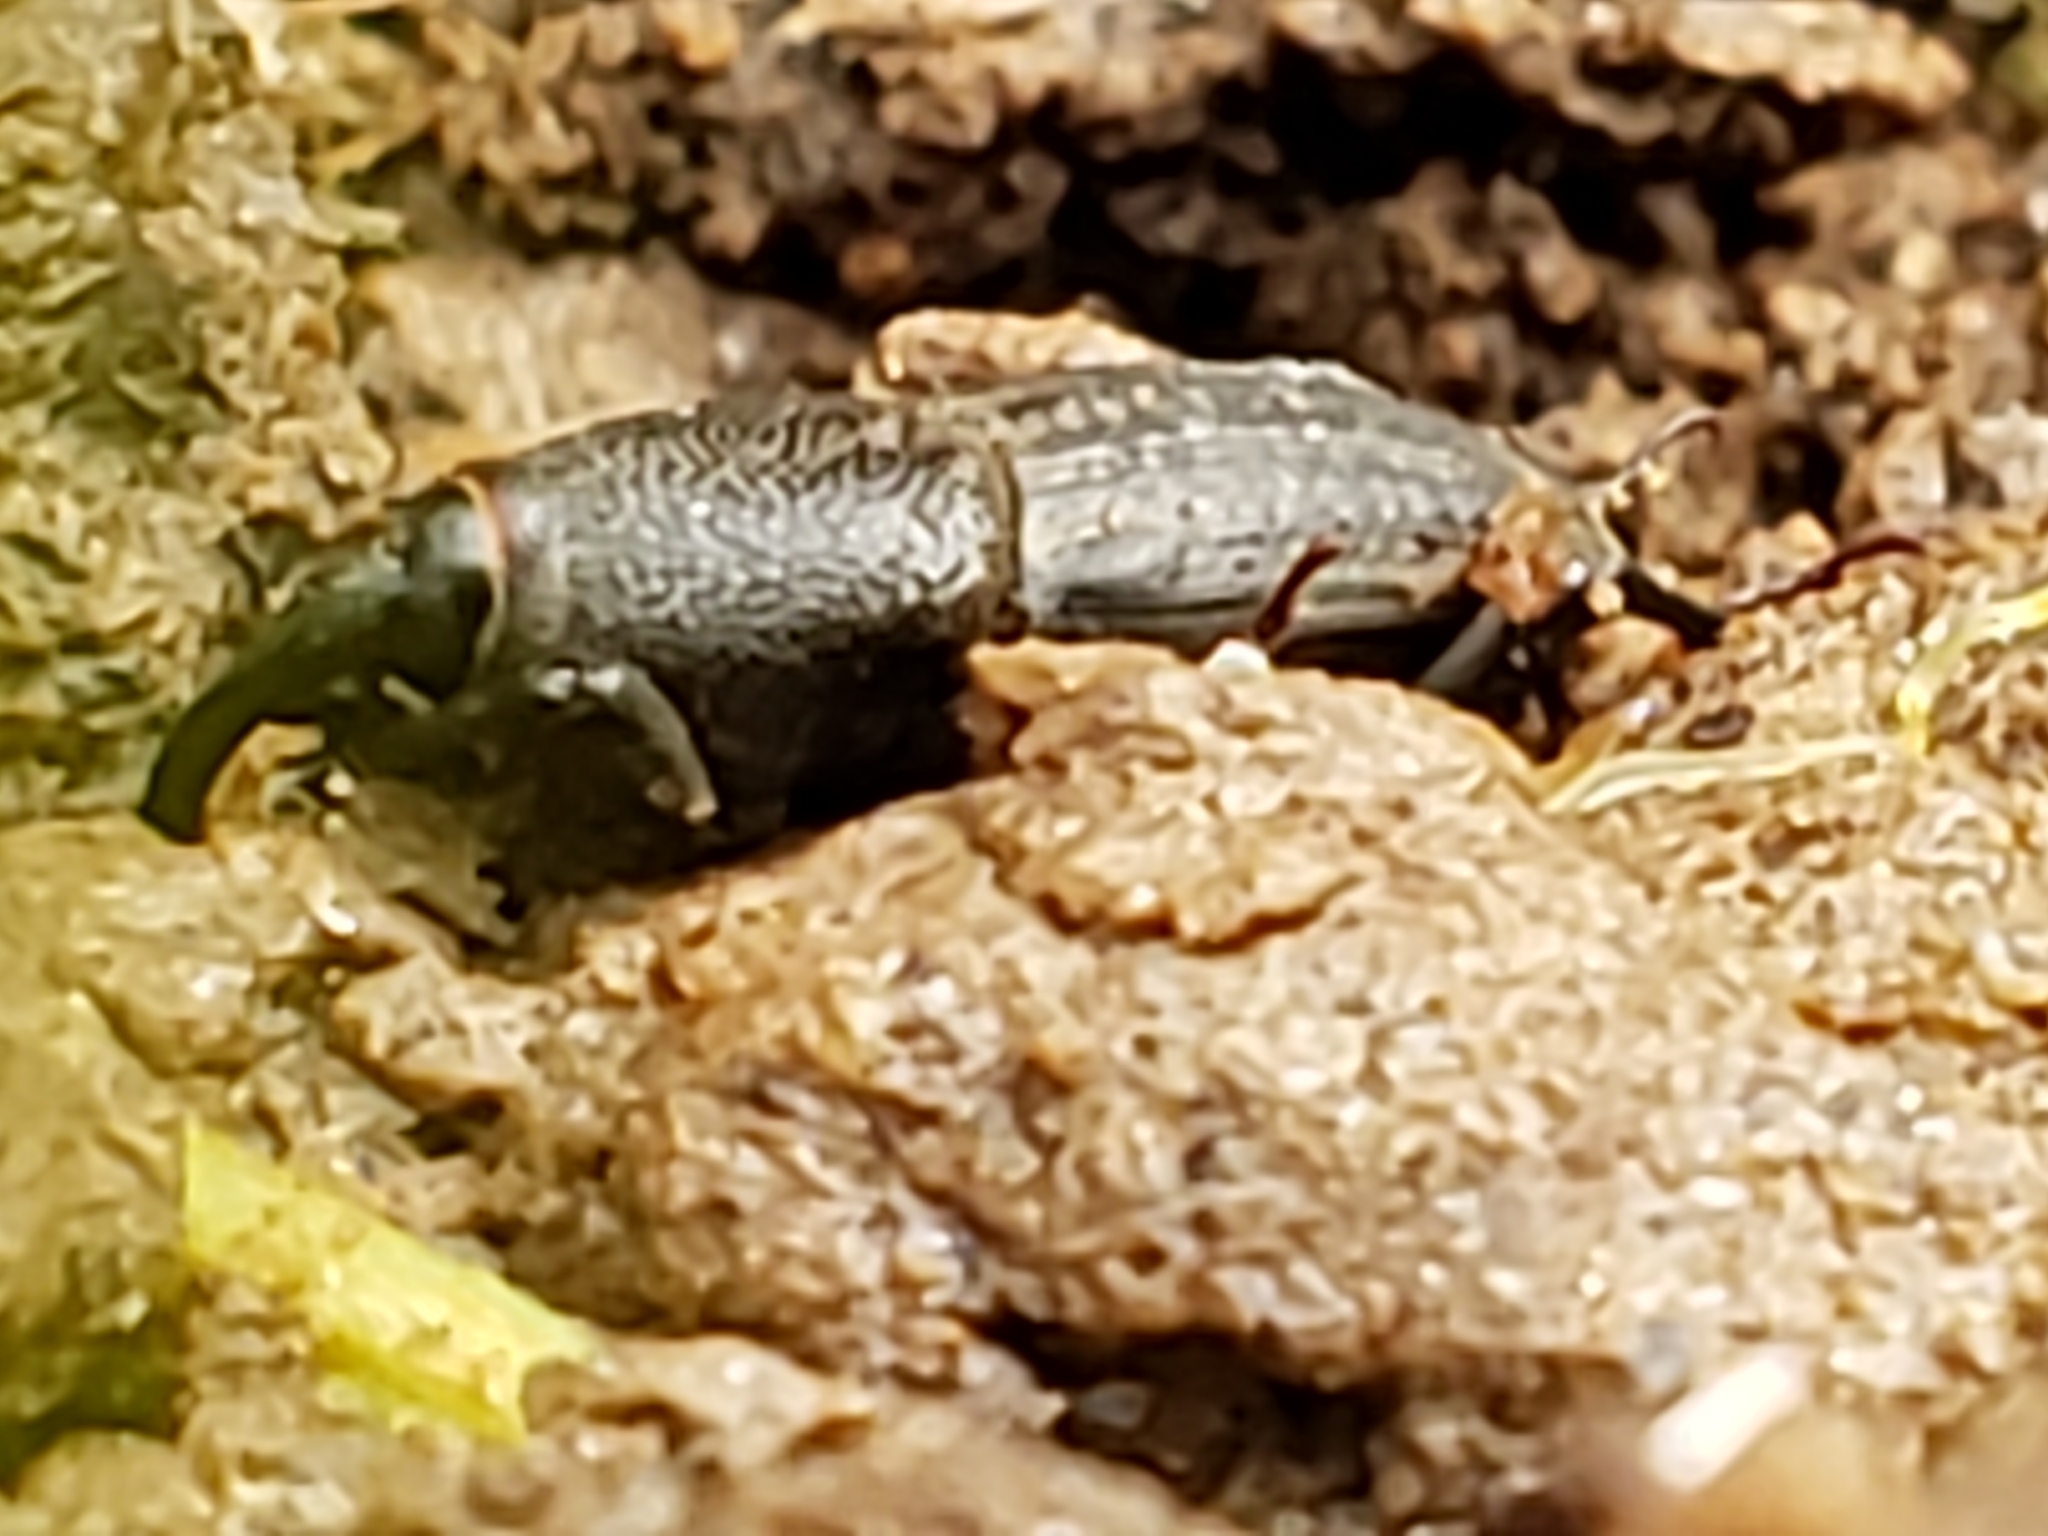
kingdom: Animalia
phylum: Arthropoda
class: Insecta
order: Coleoptera
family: Dryophthoridae
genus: Sphenophorus
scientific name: Sphenophorus interstitialis
